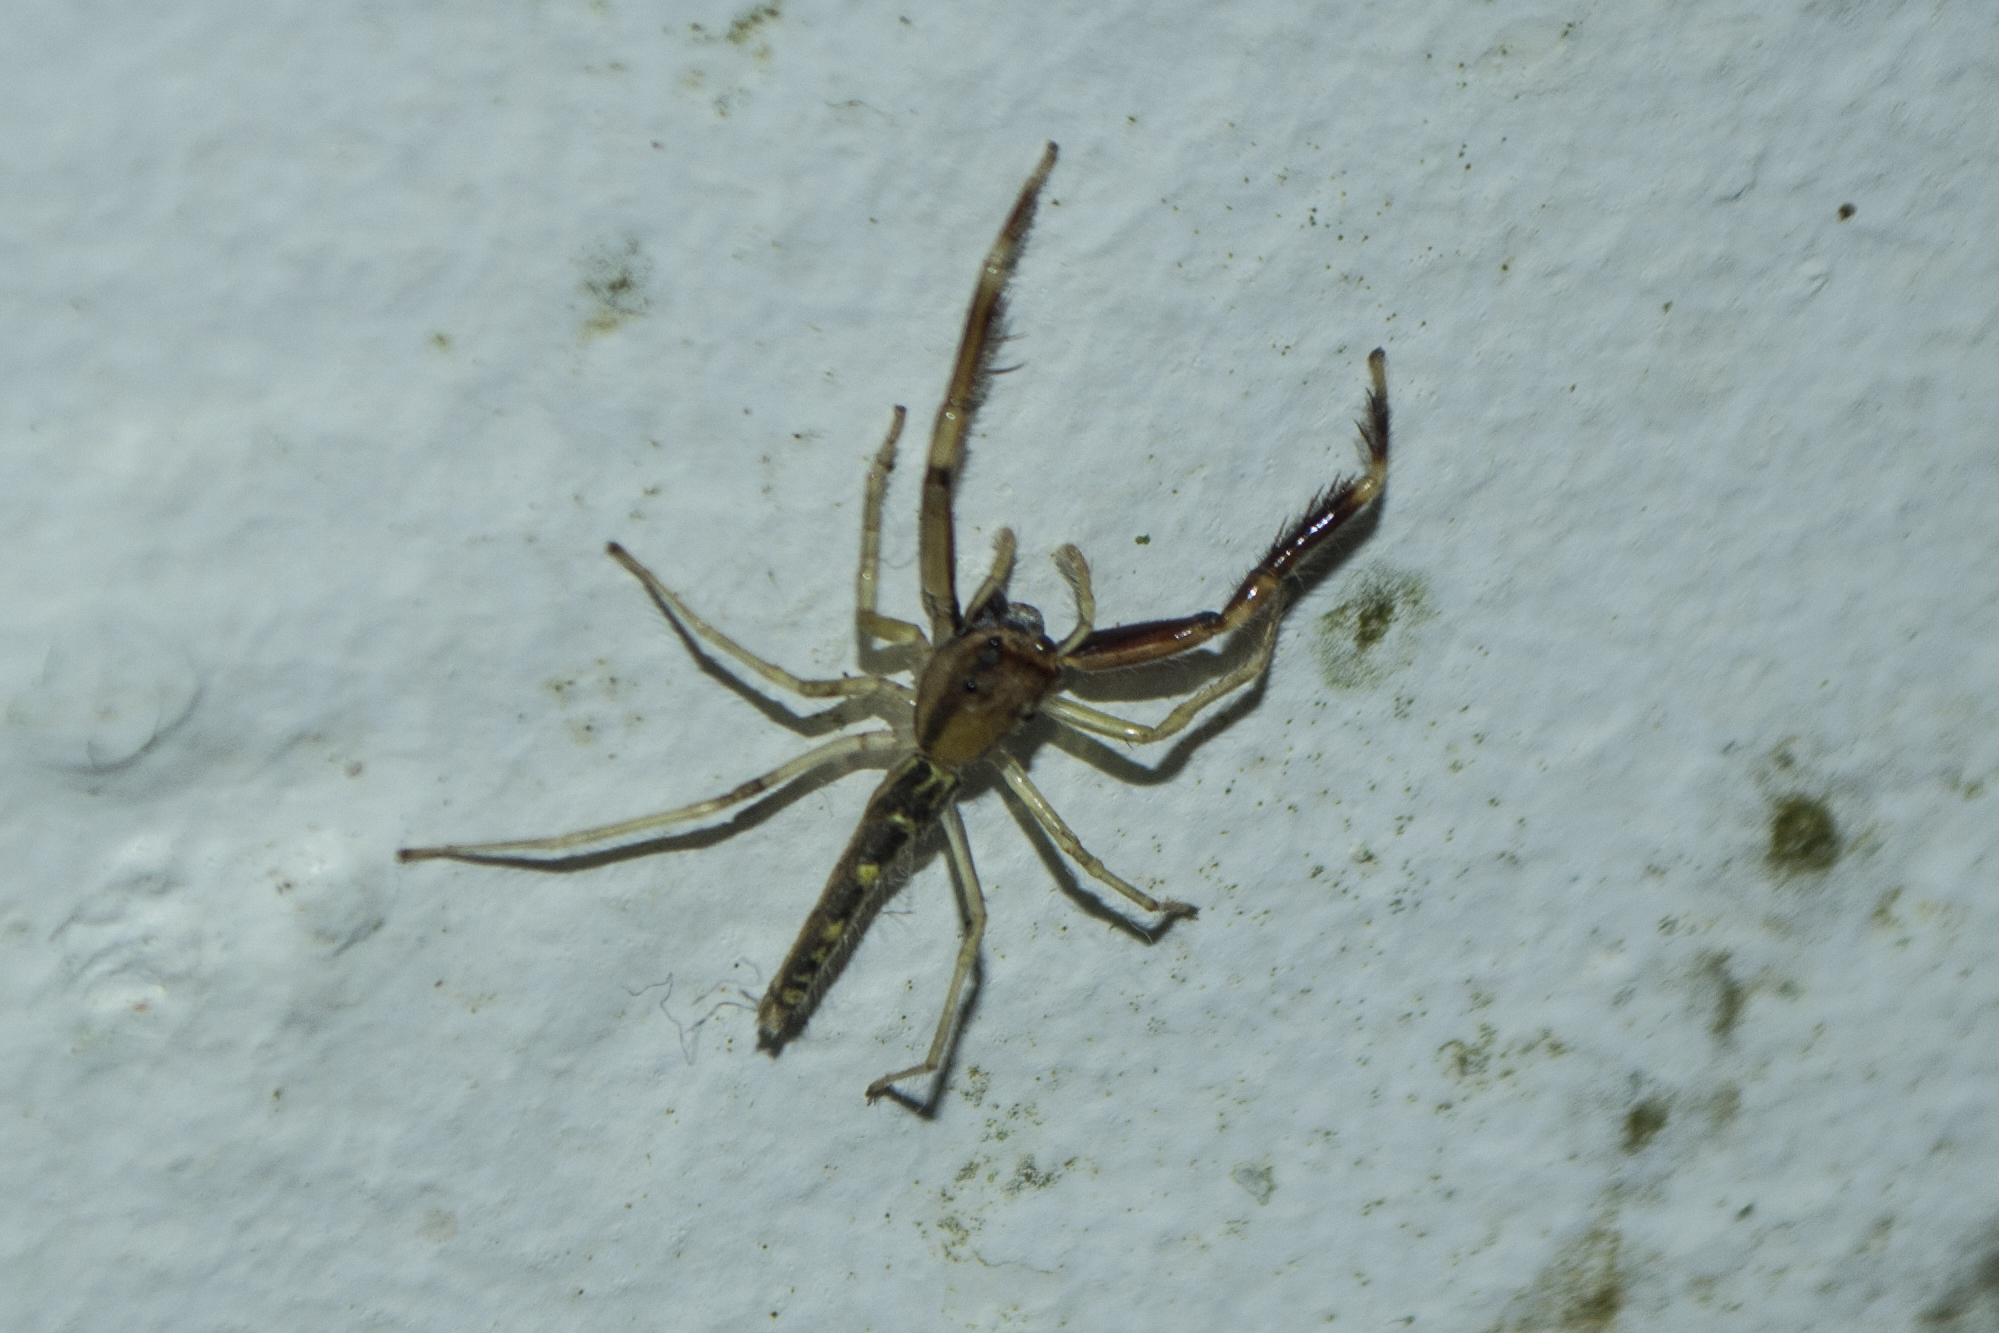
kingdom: Animalia
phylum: Arthropoda
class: Arachnida
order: Araneae
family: Salticidae
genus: Itata
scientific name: Itata completa
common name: Jumping spiders
